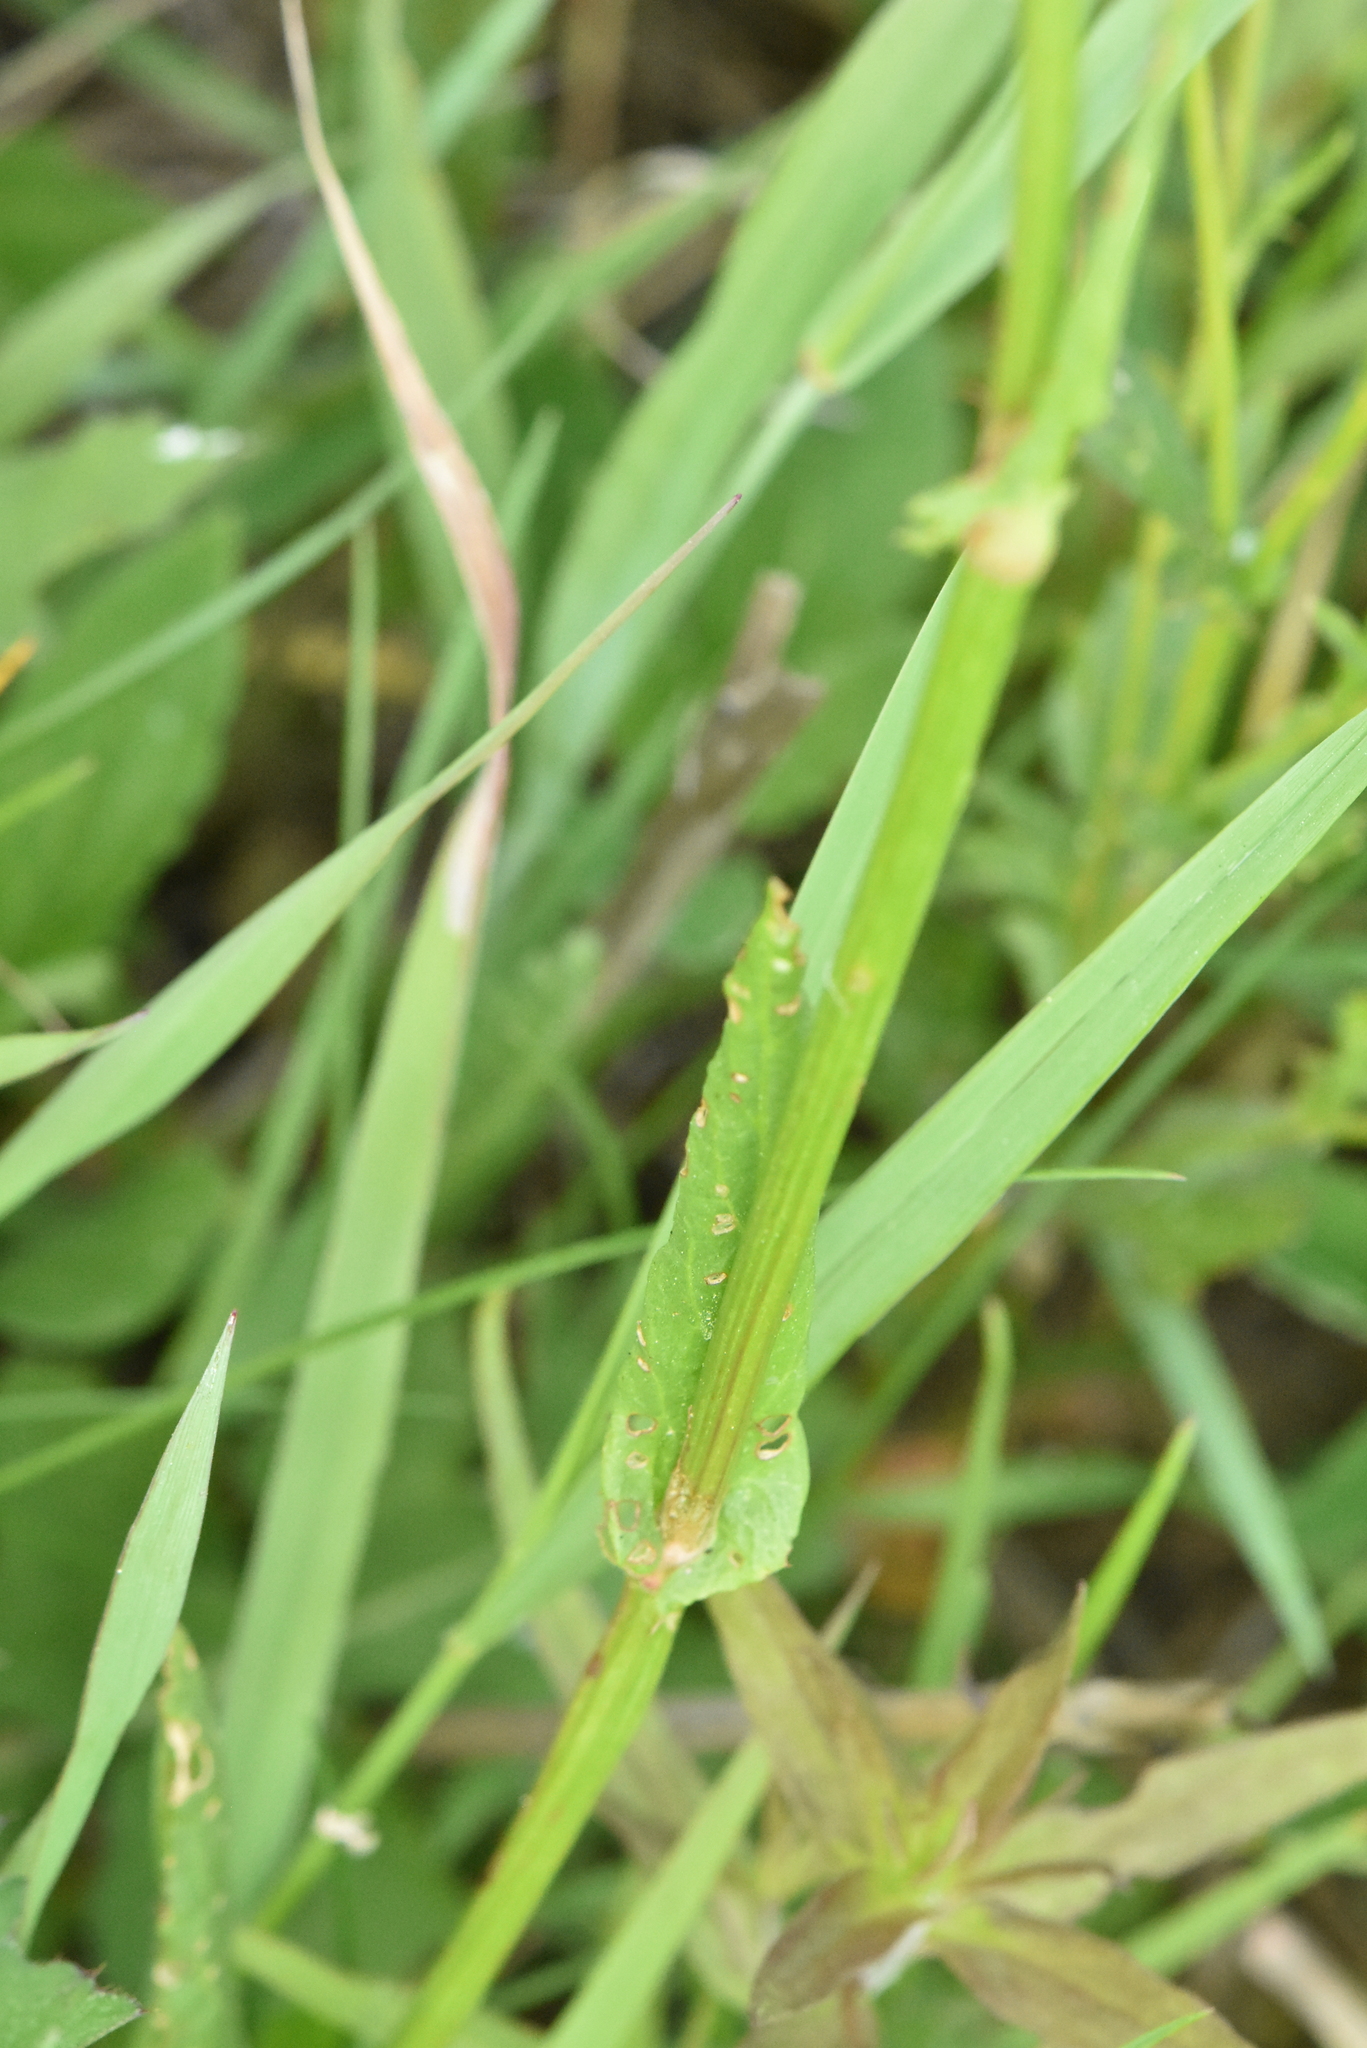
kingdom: Plantae
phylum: Tracheophyta
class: Magnoliopsida
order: Caryophyllales
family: Polygonaceae
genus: Rumex
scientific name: Rumex thyrsiflorus
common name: Garden sorrel
